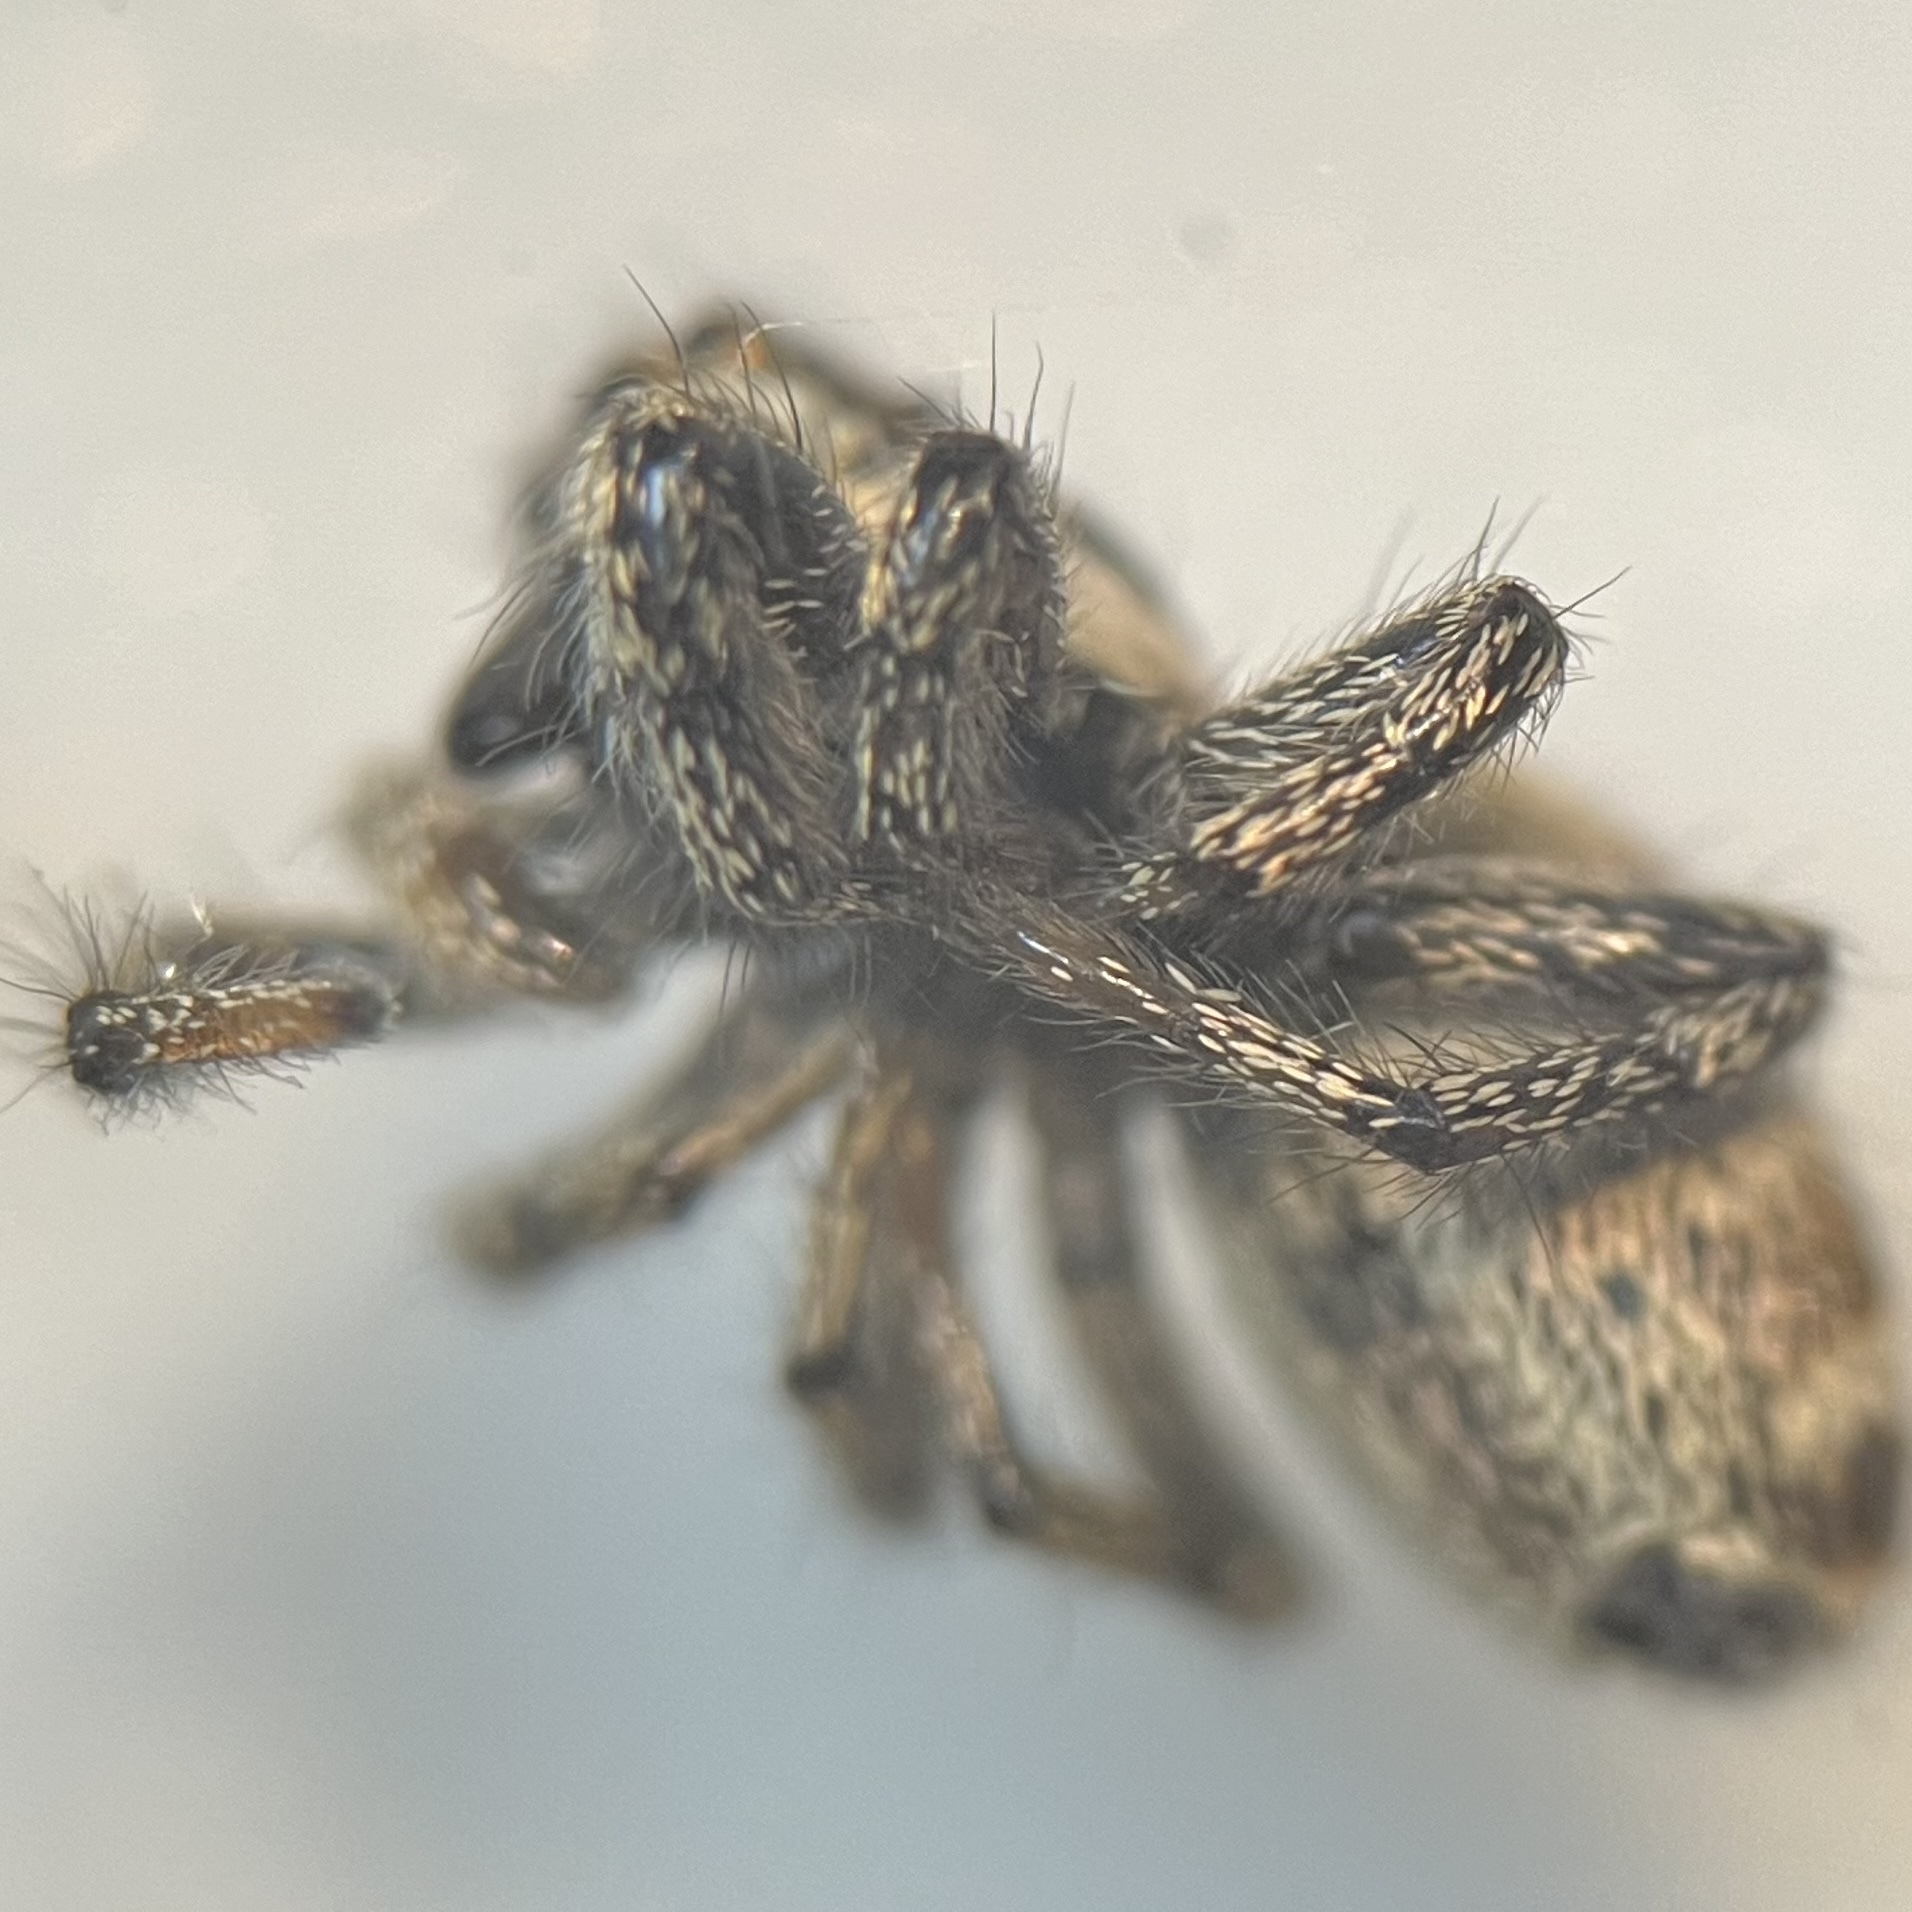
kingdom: Animalia
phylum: Arthropoda
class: Arachnida
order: Araneae
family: Salticidae
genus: Salticus
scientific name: Salticus scenicus
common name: Zebra jumper
